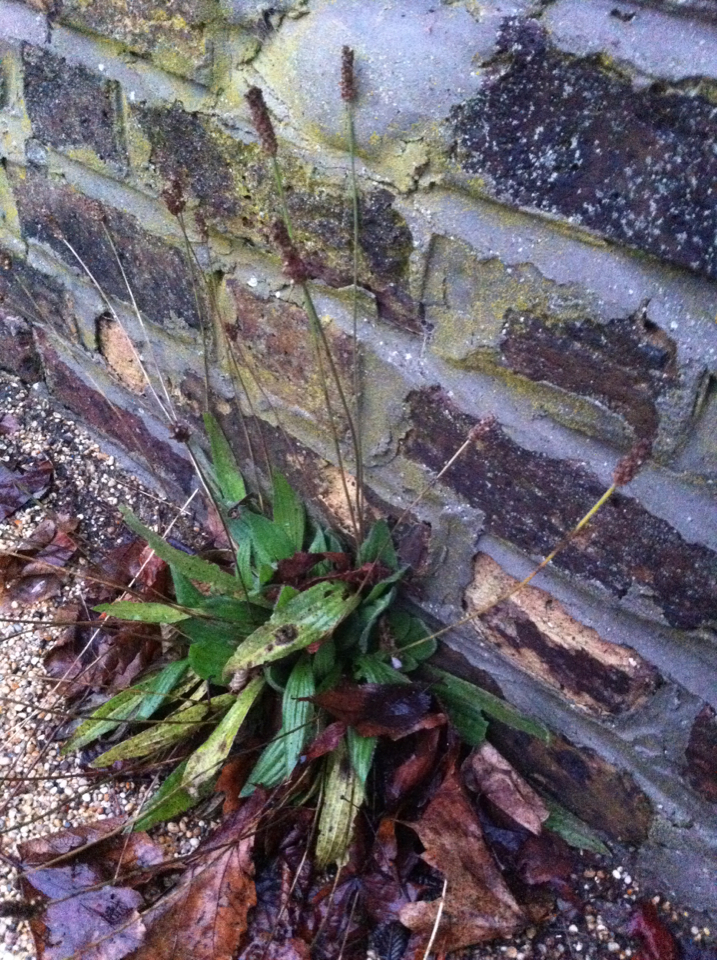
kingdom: Plantae
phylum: Tracheophyta
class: Magnoliopsida
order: Lamiales
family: Plantaginaceae
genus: Plantago
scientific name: Plantago lanceolata
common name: Ribwort plantain
